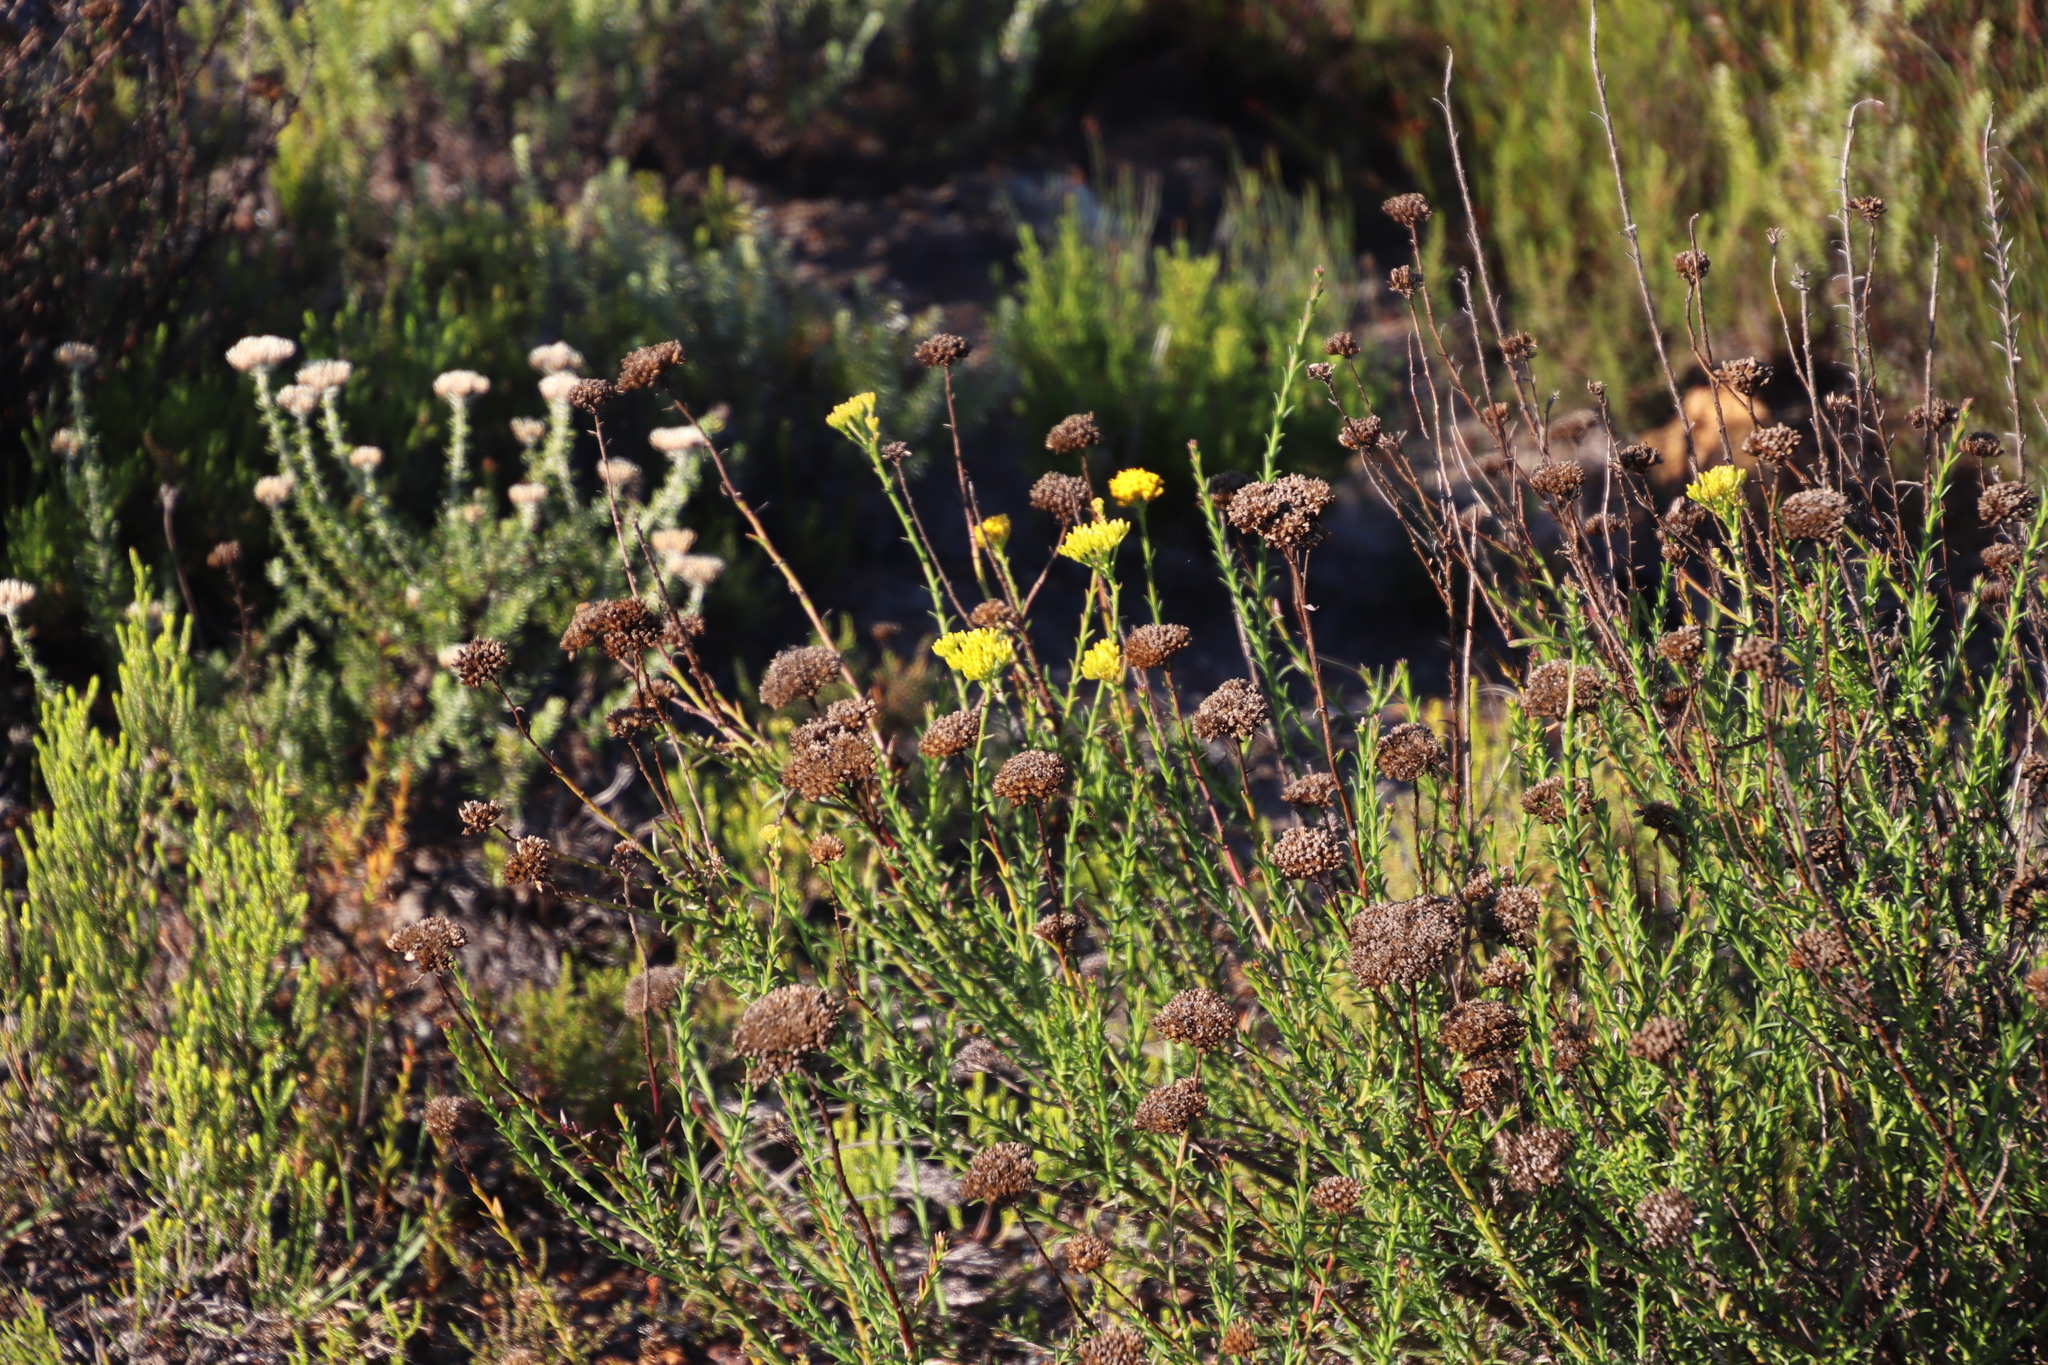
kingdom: Plantae
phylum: Tracheophyta
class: Magnoliopsida
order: Asterales
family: Asteraceae
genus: Athanasia
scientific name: Athanasia juncea
